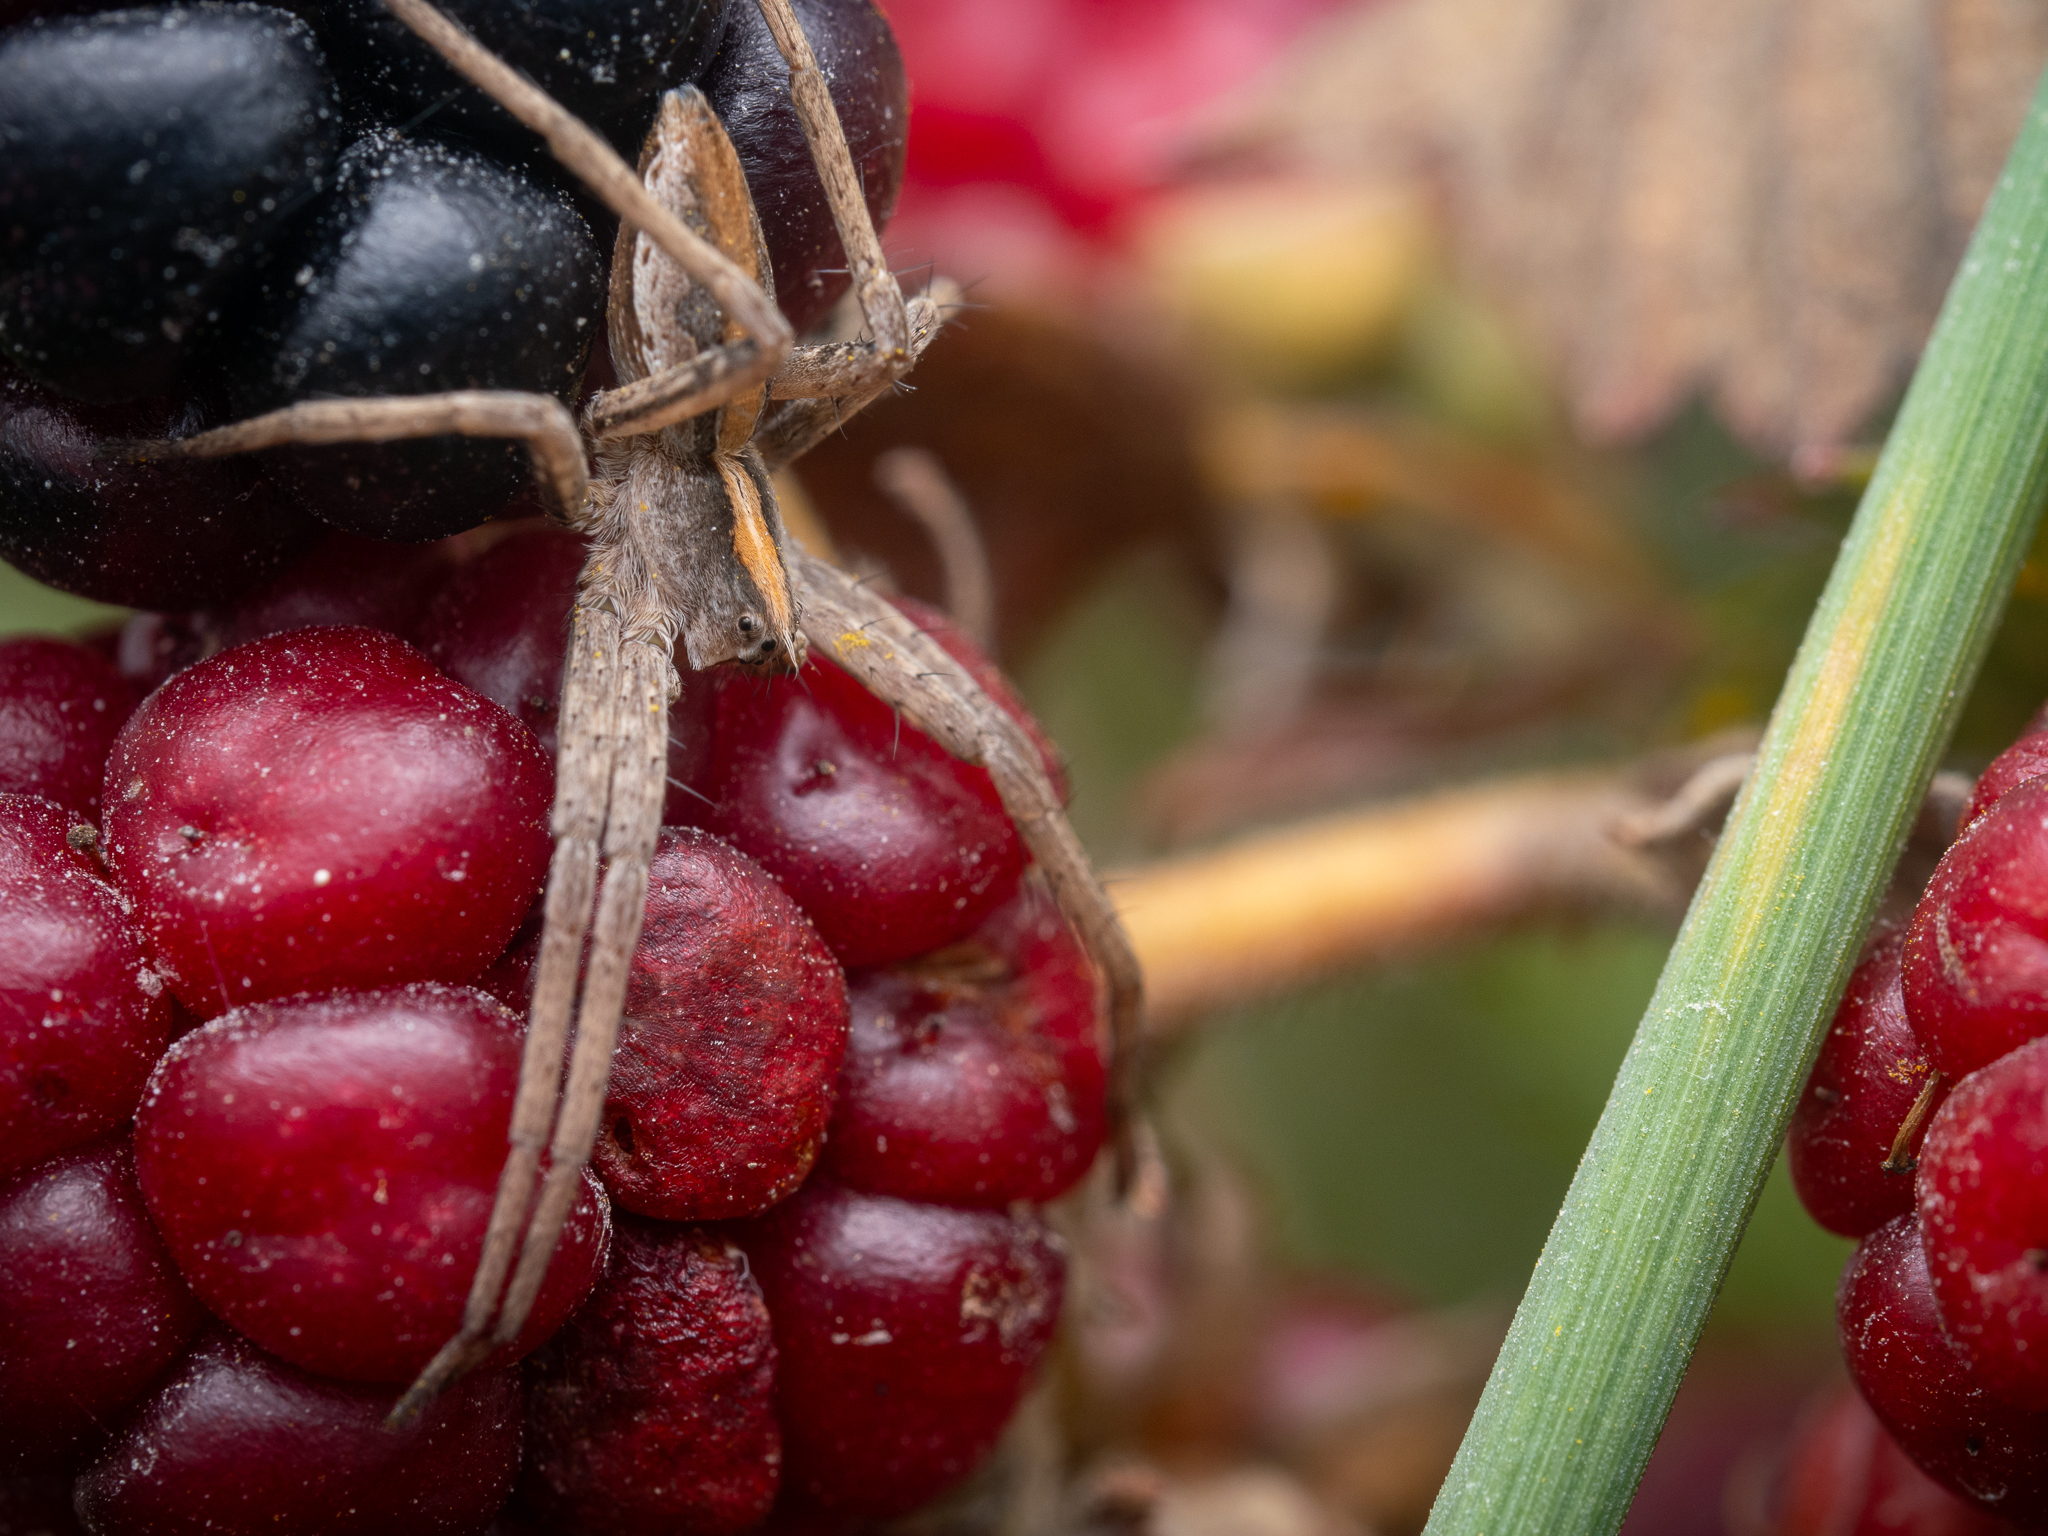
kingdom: Animalia
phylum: Arthropoda
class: Arachnida
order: Araneae
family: Pisauridae
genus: Pisaura
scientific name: Pisaura mirabilis
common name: Tent spider
